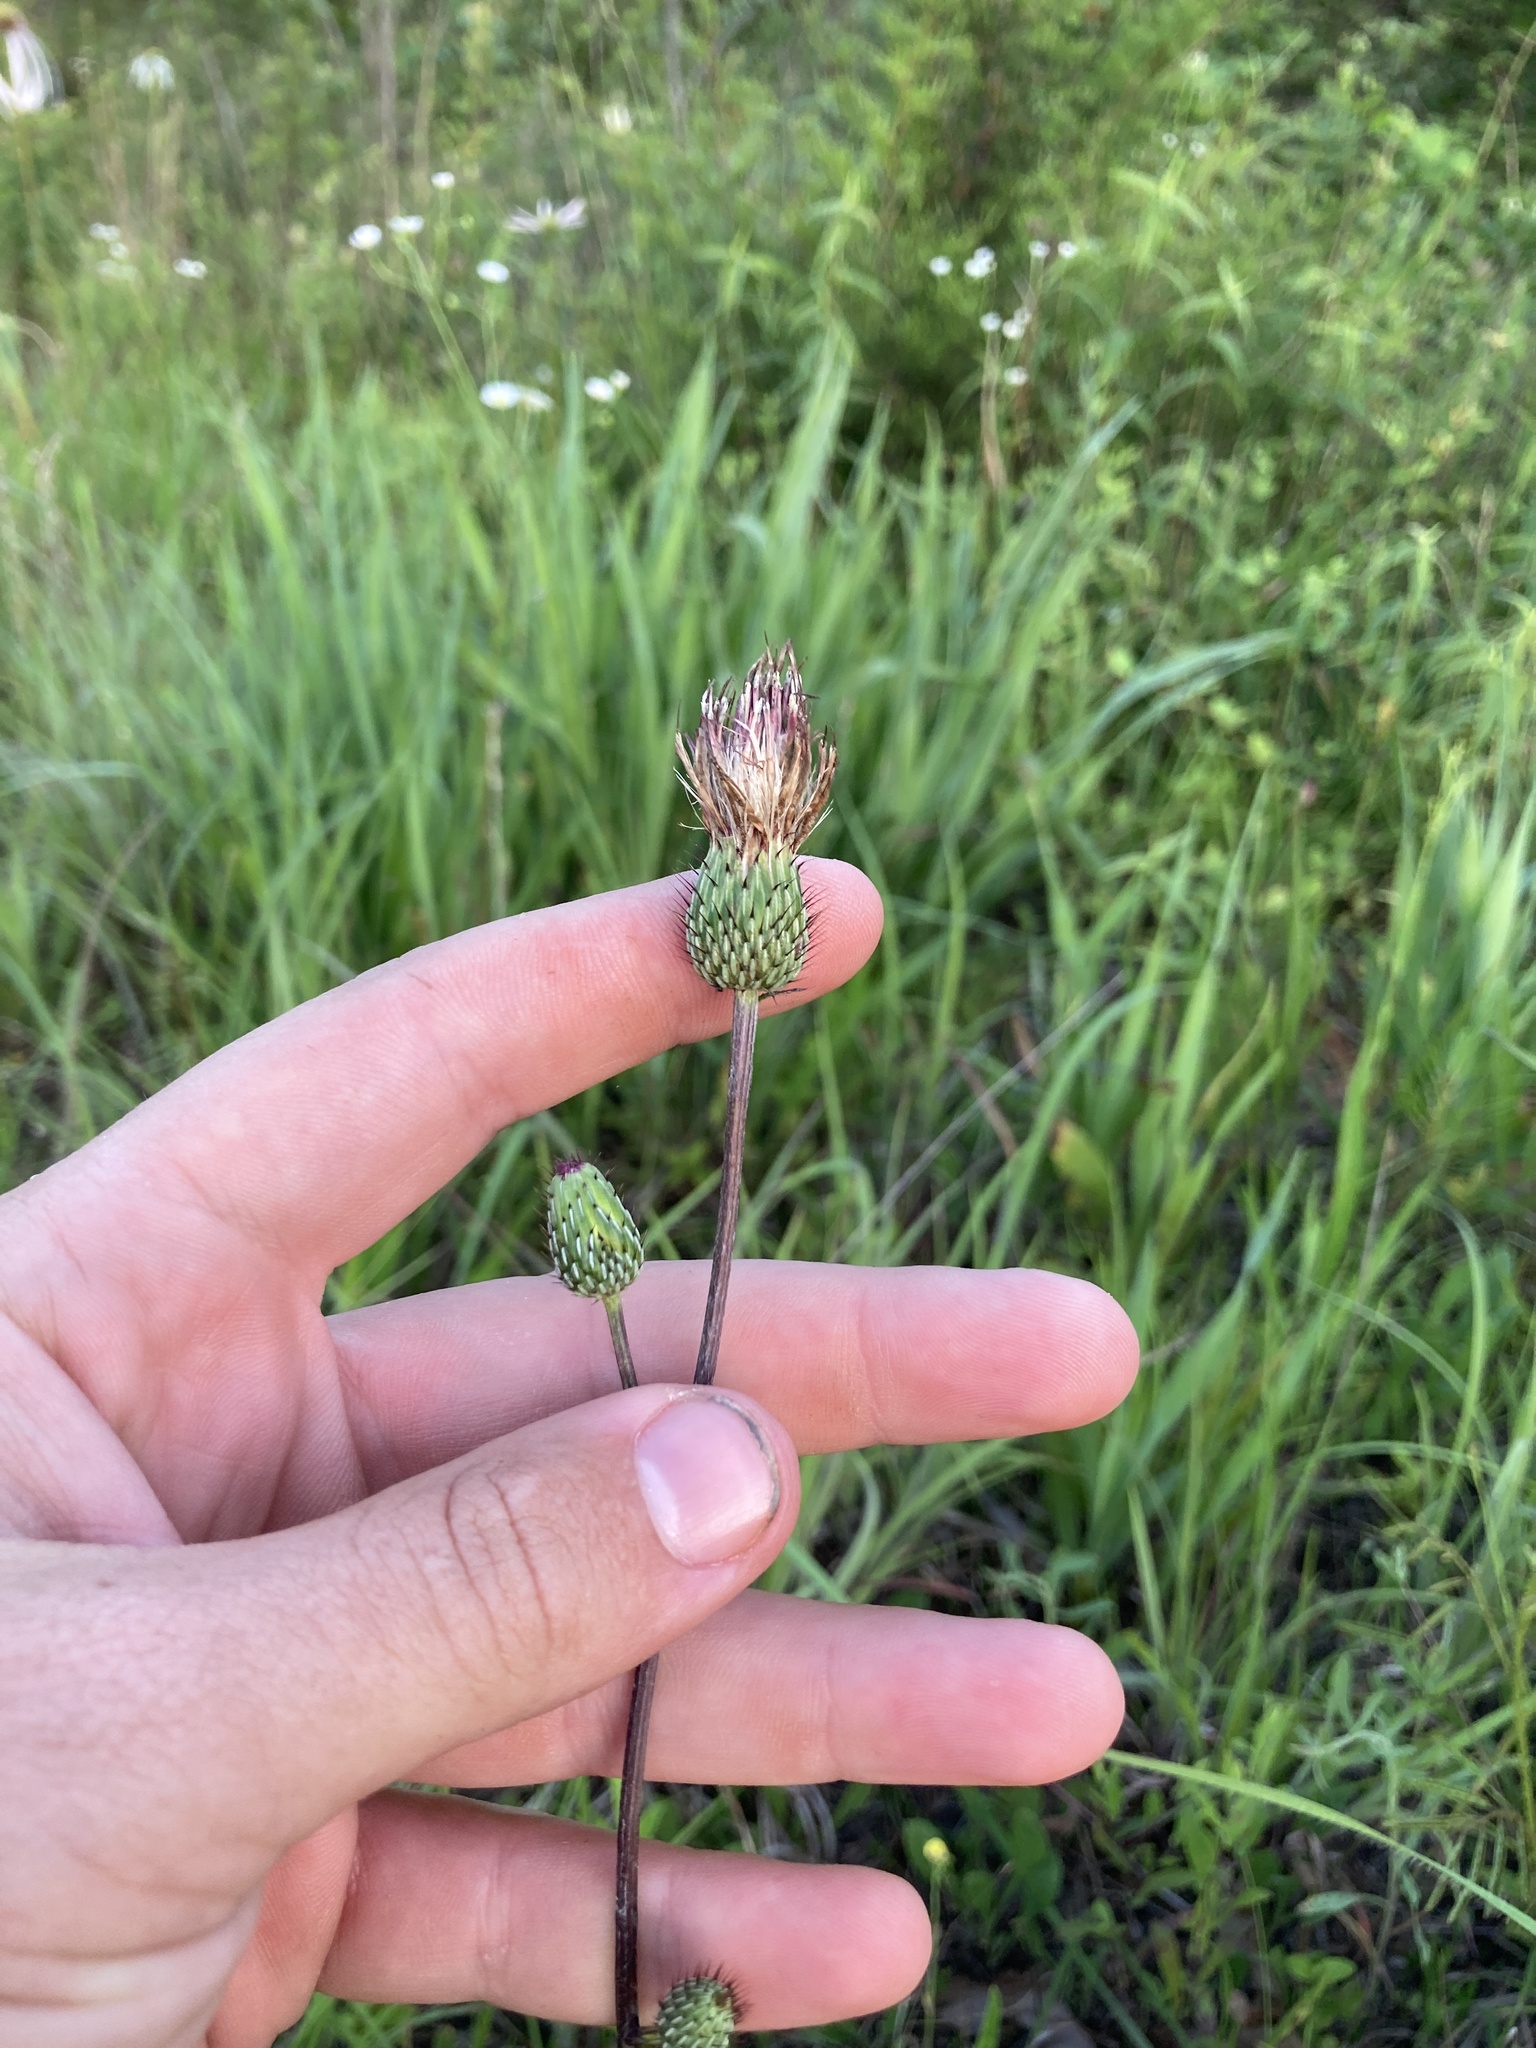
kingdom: Plantae
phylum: Tracheophyta
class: Magnoliopsida
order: Asterales
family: Asteraceae
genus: Cirsium
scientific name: Cirsium carolinianum
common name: Carolina thistle
